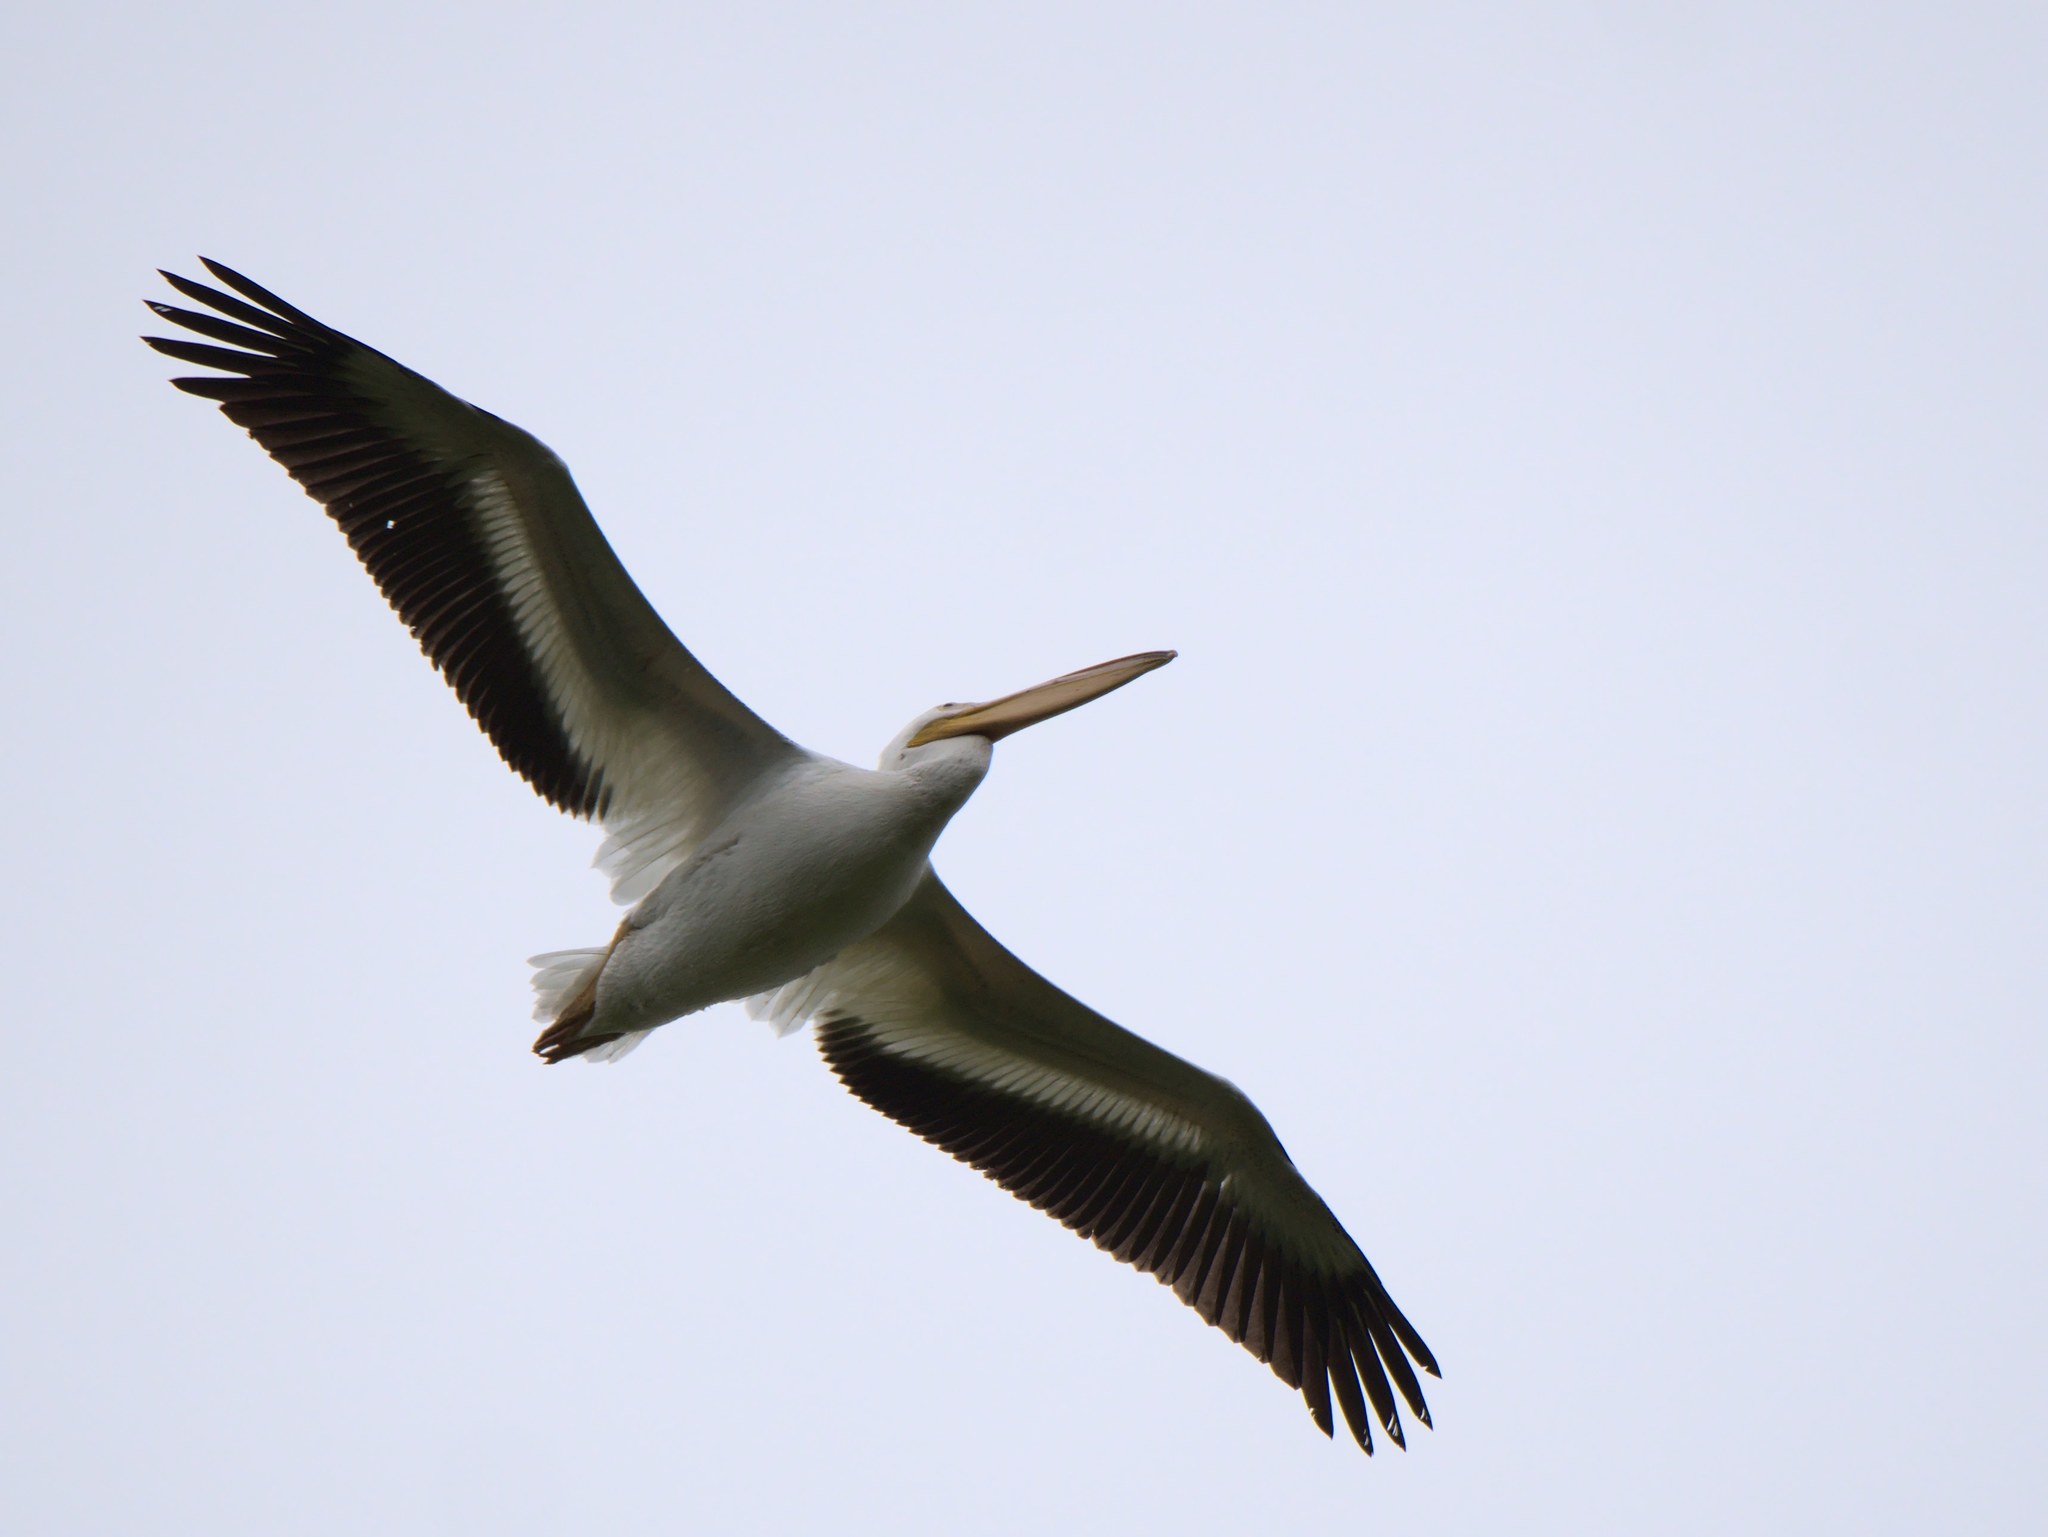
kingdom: Animalia
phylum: Chordata
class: Aves
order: Pelecaniformes
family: Pelecanidae
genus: Pelecanus
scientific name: Pelecanus erythrorhynchos
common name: American white pelican
